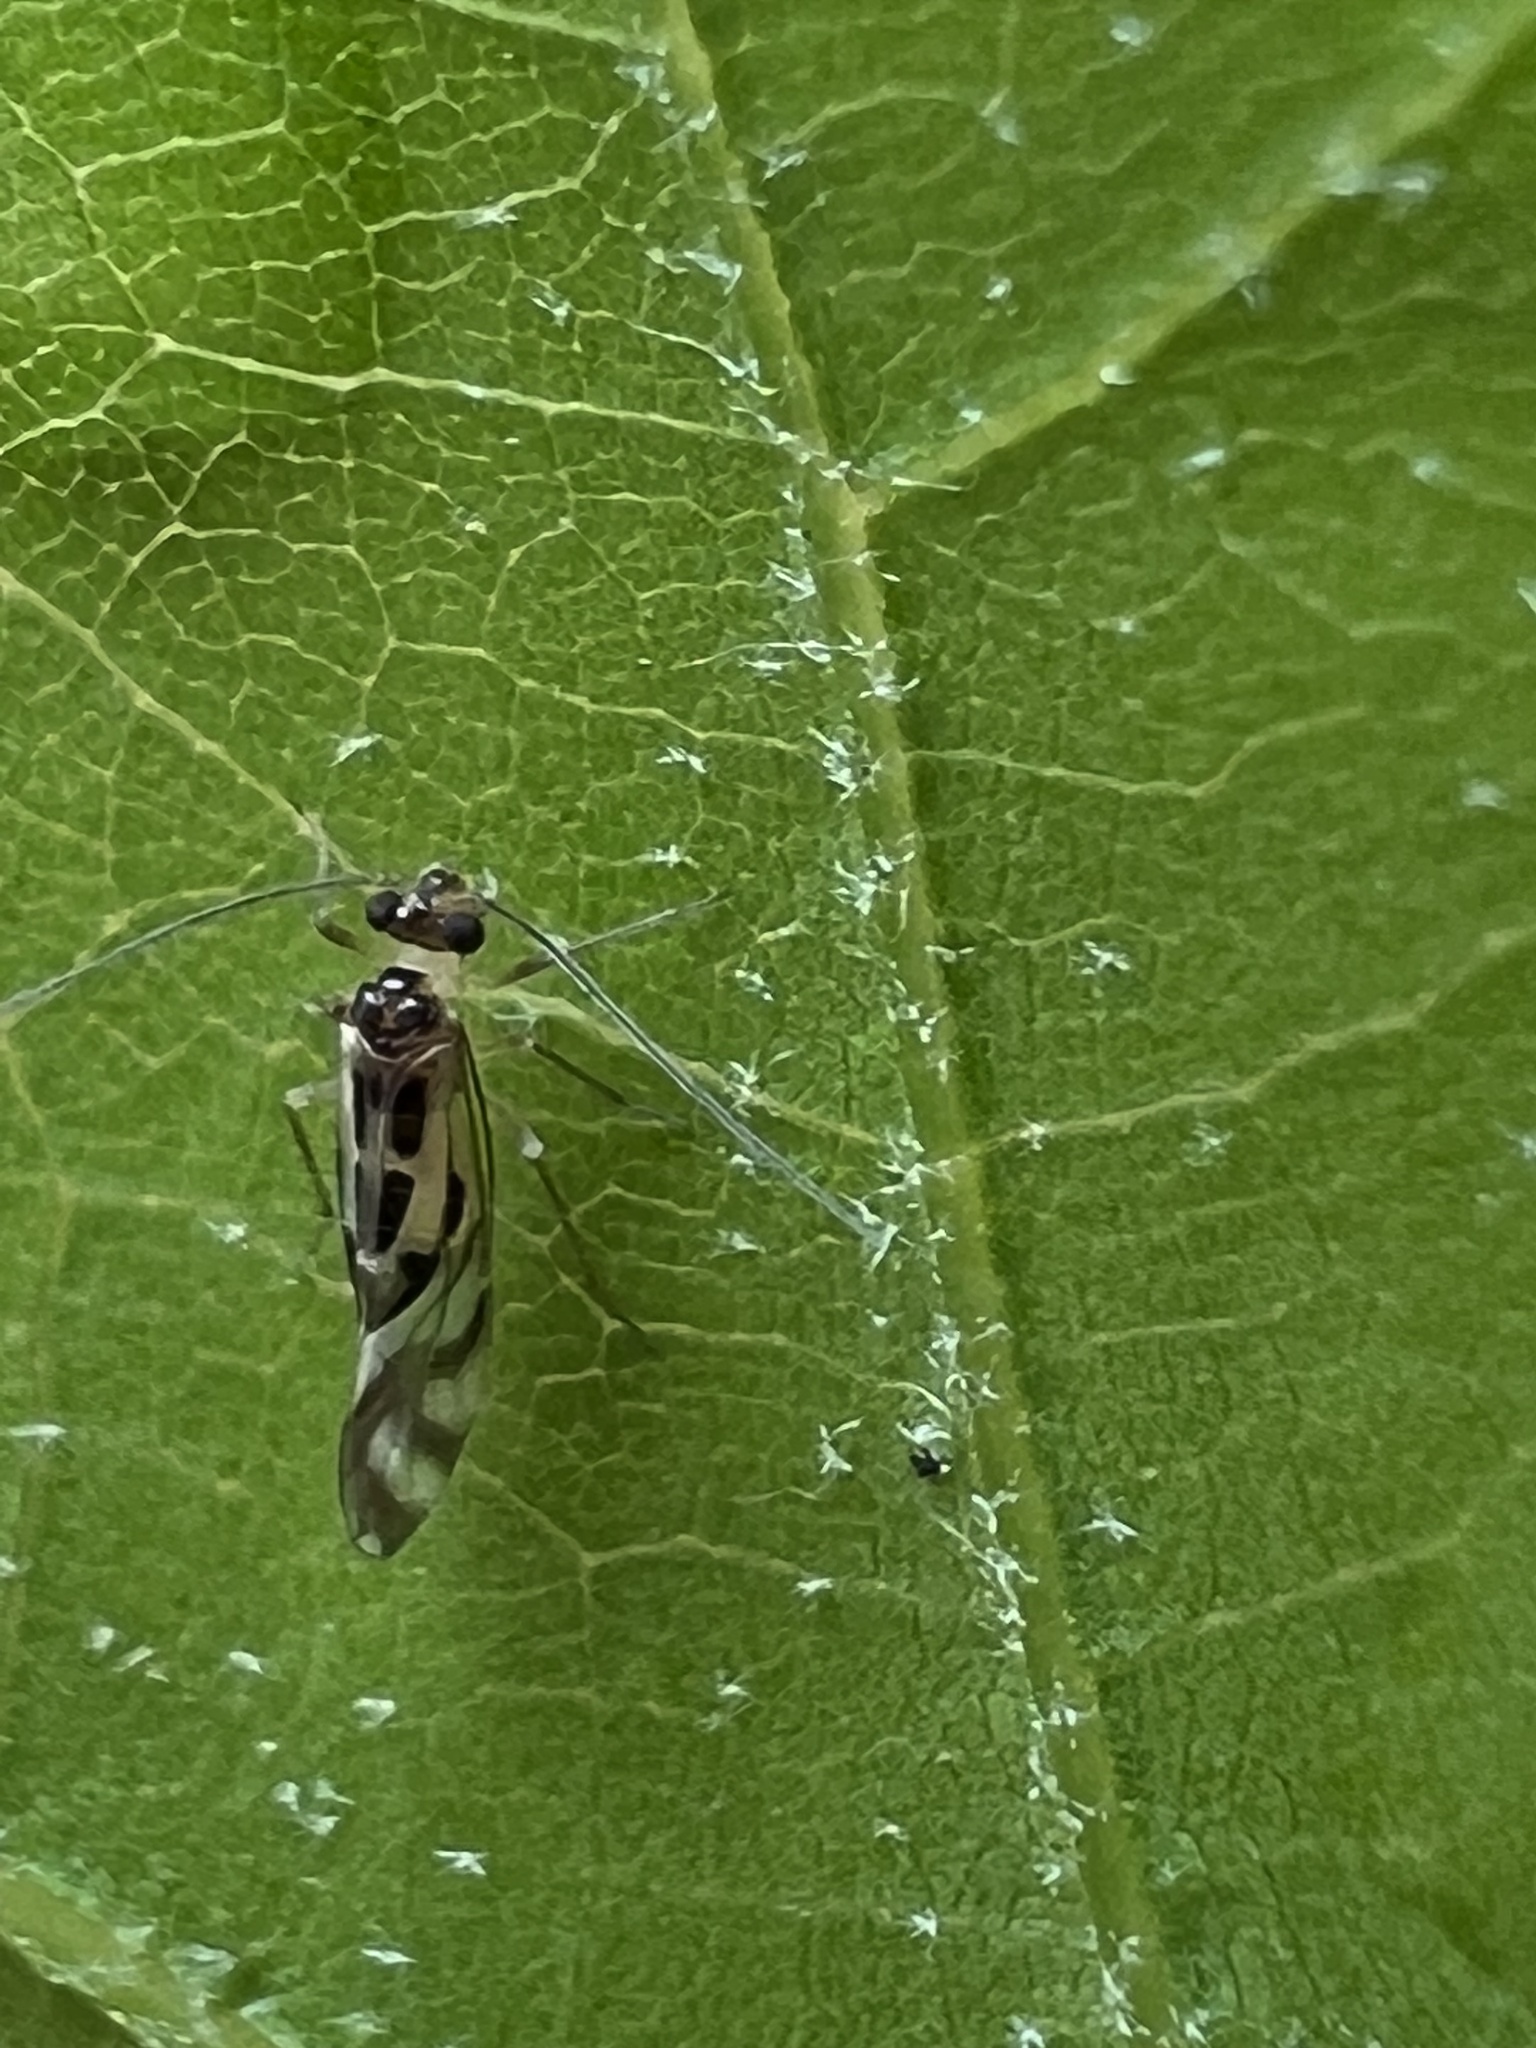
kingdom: Animalia
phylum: Arthropoda
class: Insecta
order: Psocodea
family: Stenopsocidae
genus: Graphopsocus
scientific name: Graphopsocus cruciatus
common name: Lizard bark louse
